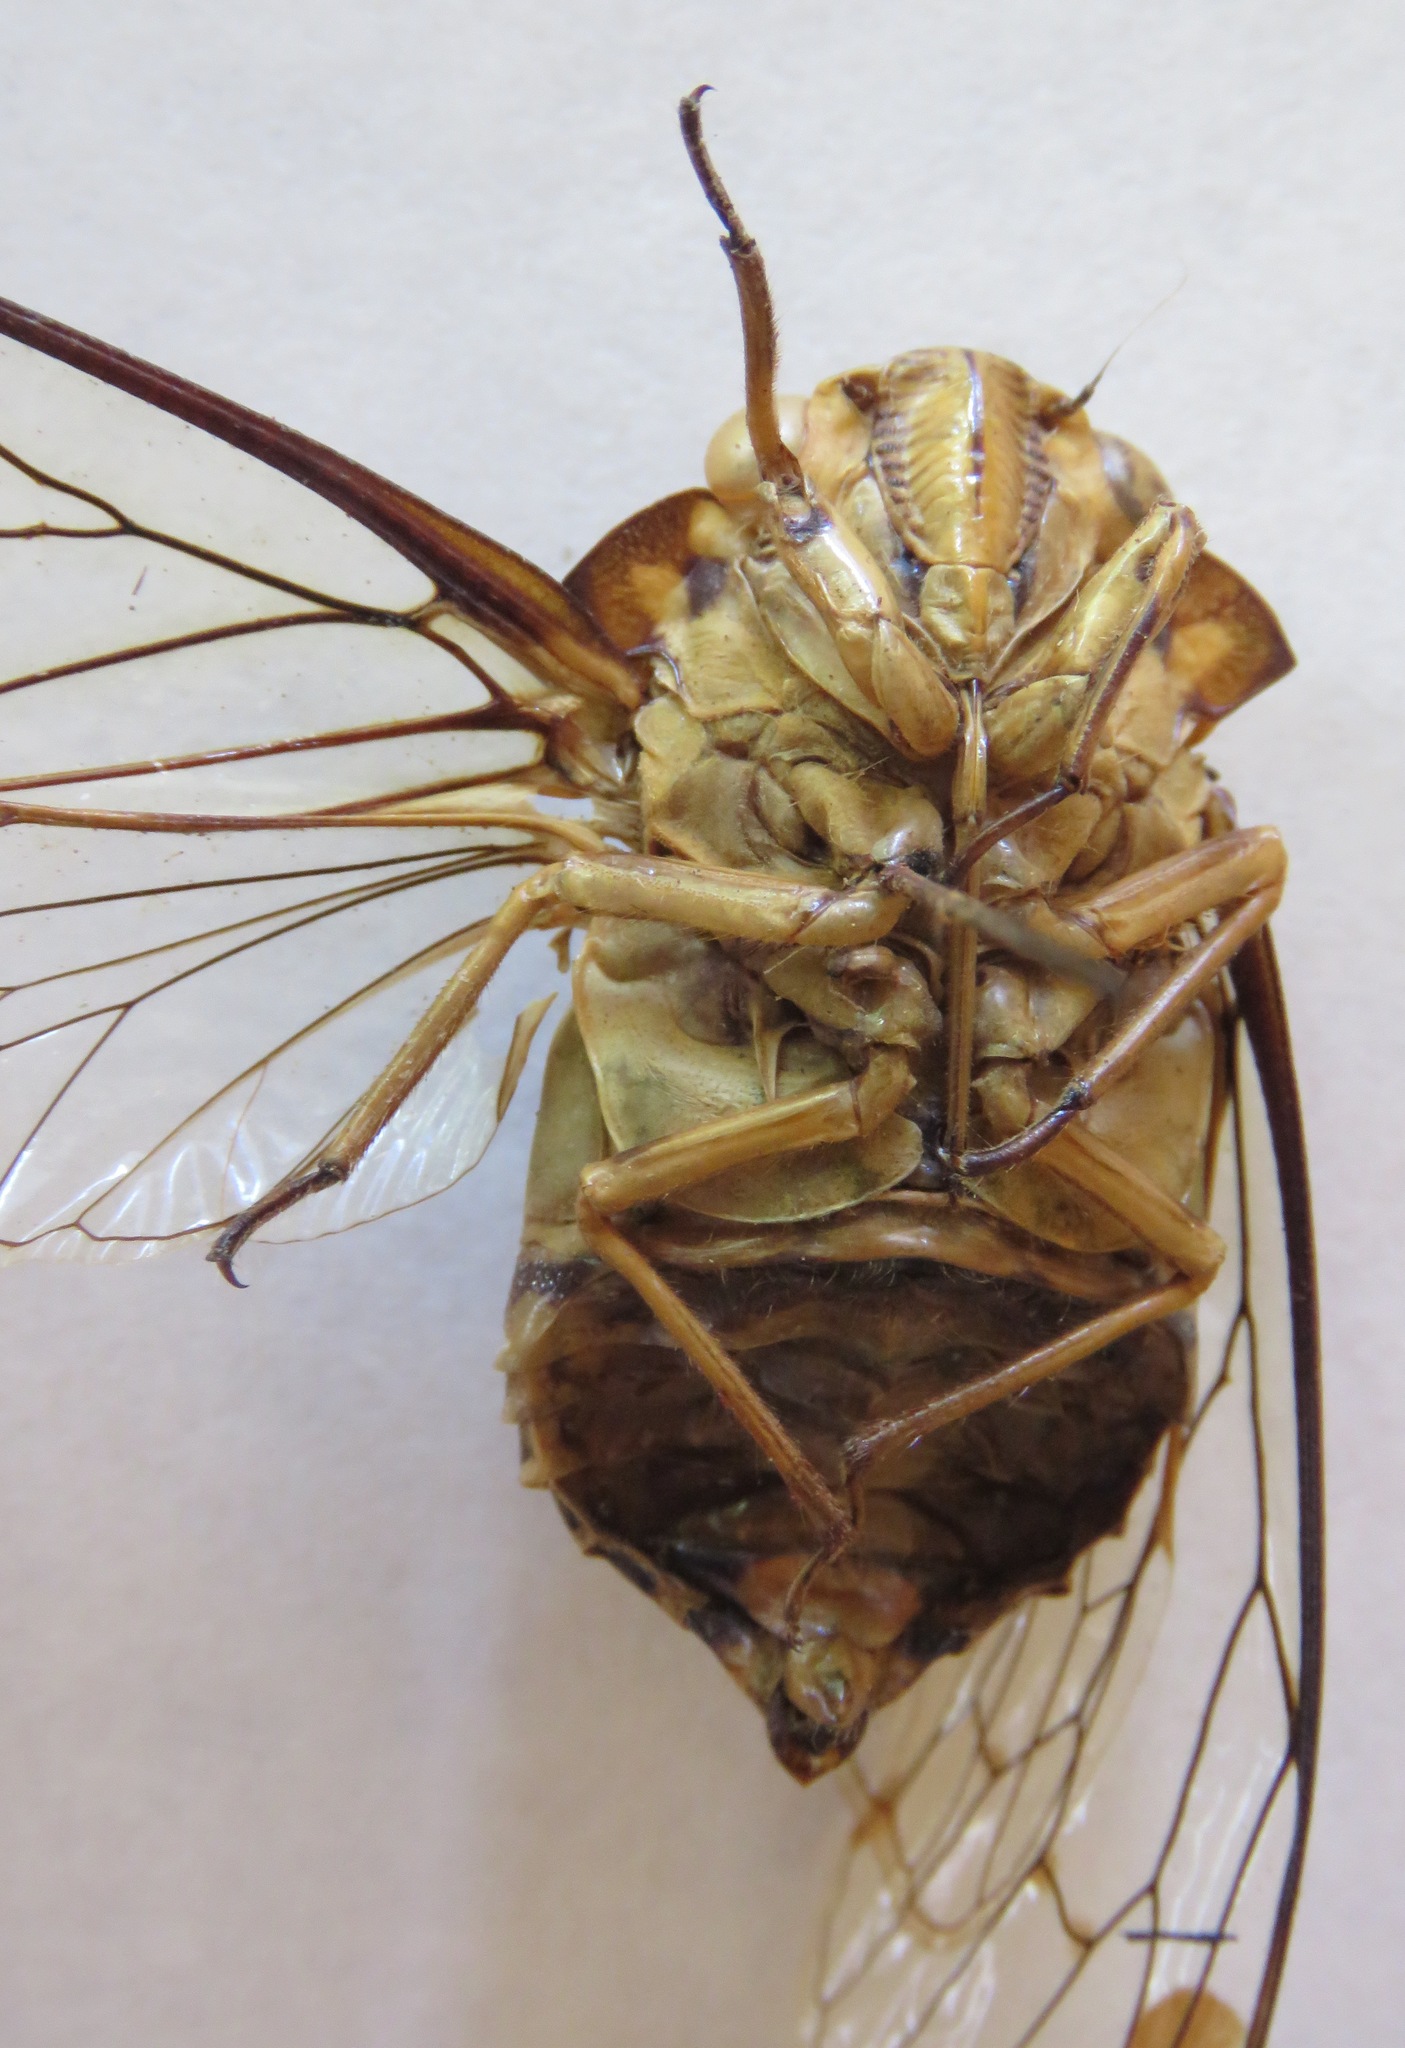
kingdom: Animalia
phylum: Arthropoda
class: Insecta
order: Hemiptera
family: Cicadidae
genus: Zammara
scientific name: Zammara smaragdina
